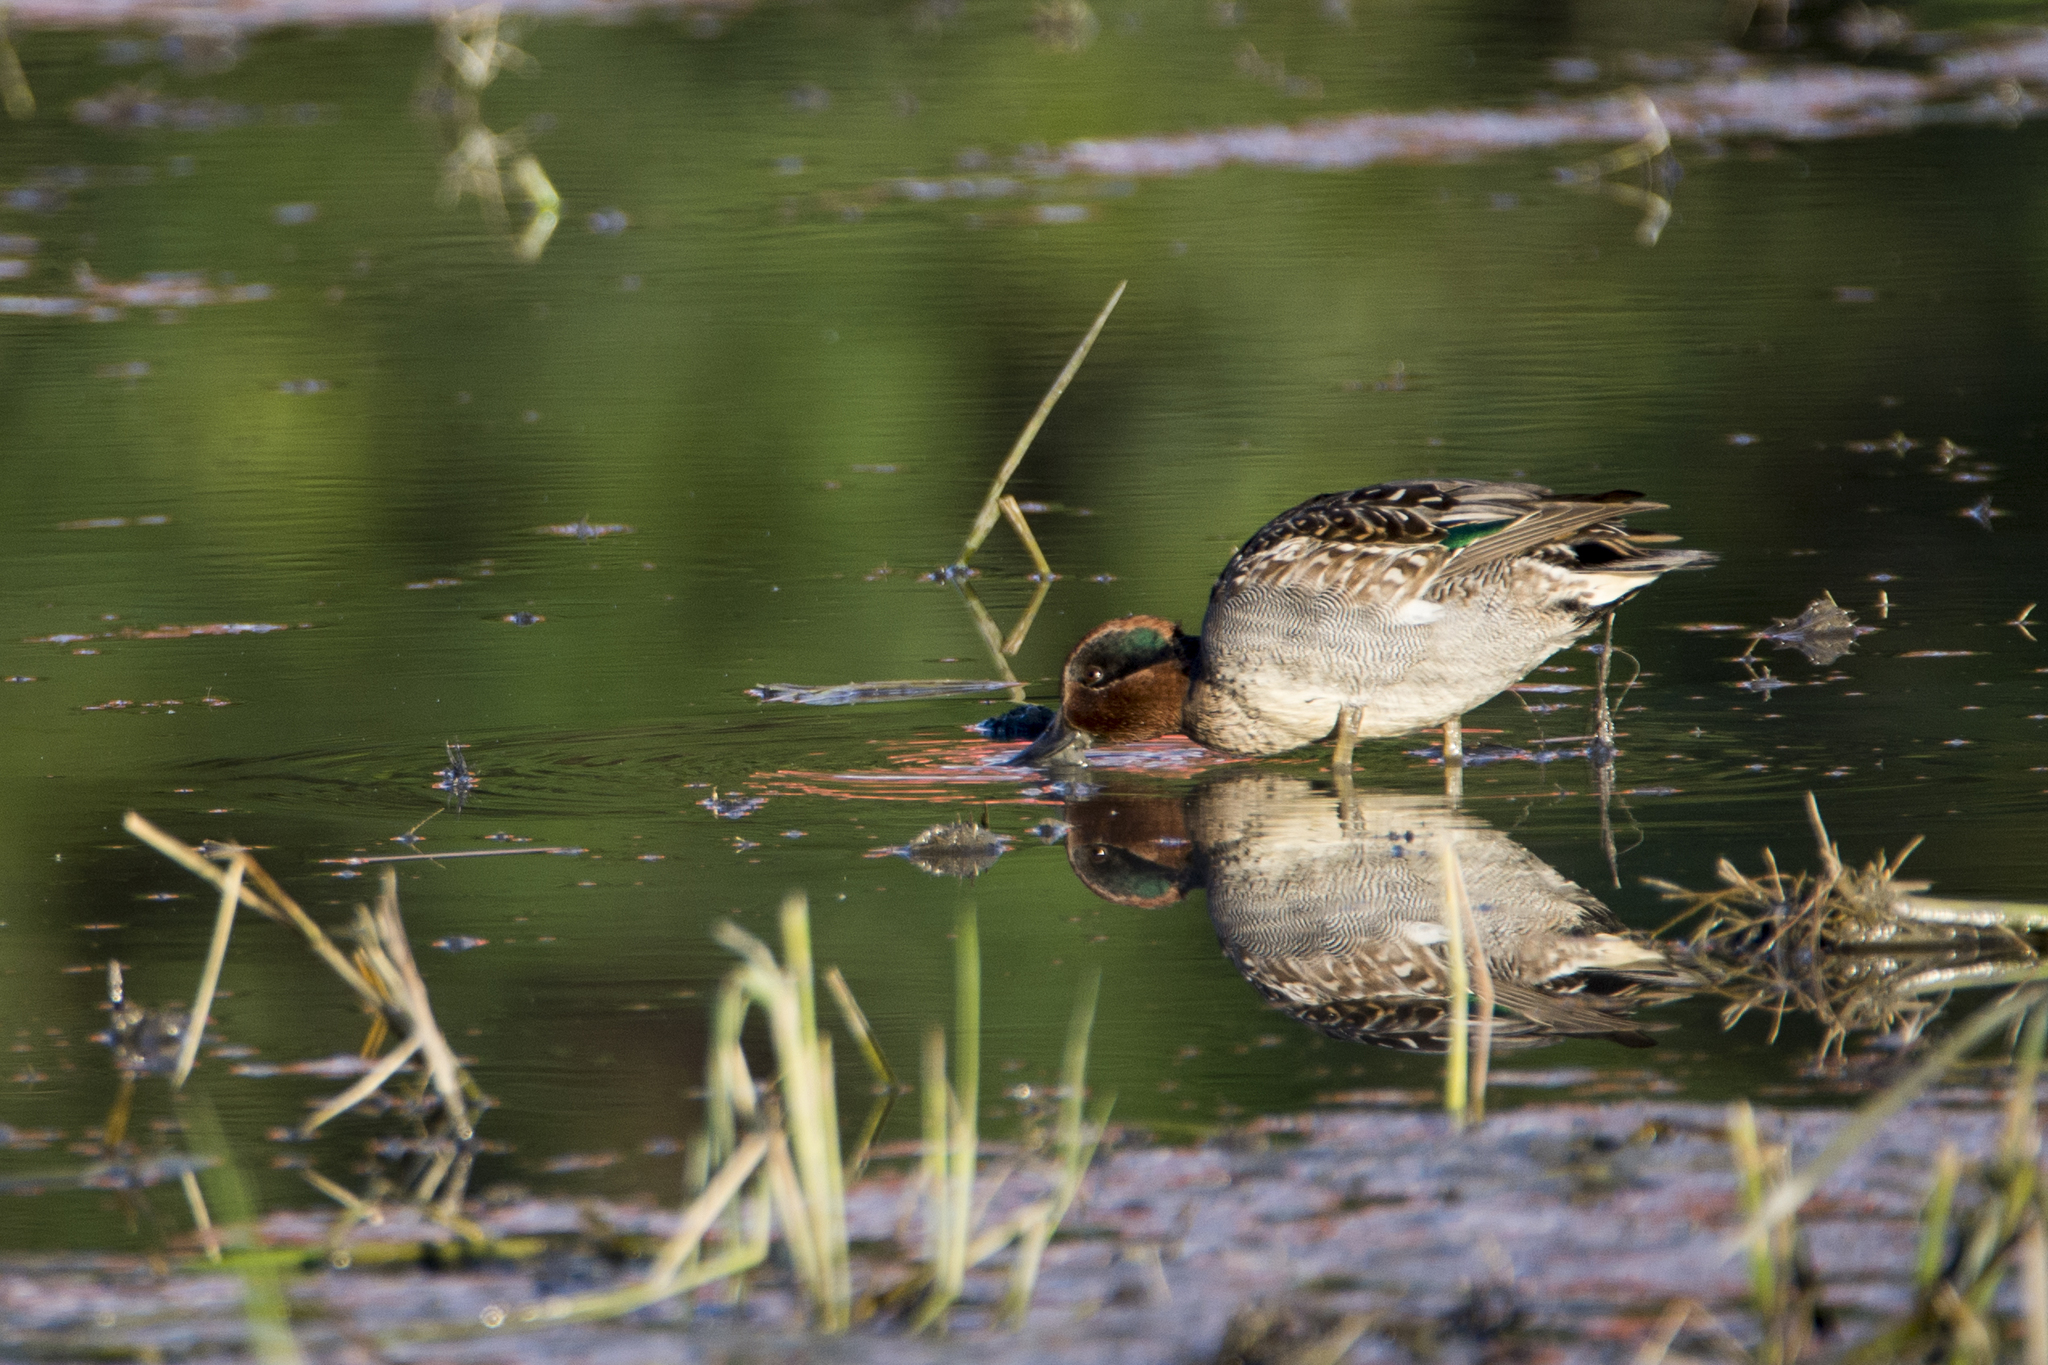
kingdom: Animalia
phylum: Chordata
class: Aves
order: Anseriformes
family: Anatidae
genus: Anas
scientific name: Anas crecca
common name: Eurasian teal
